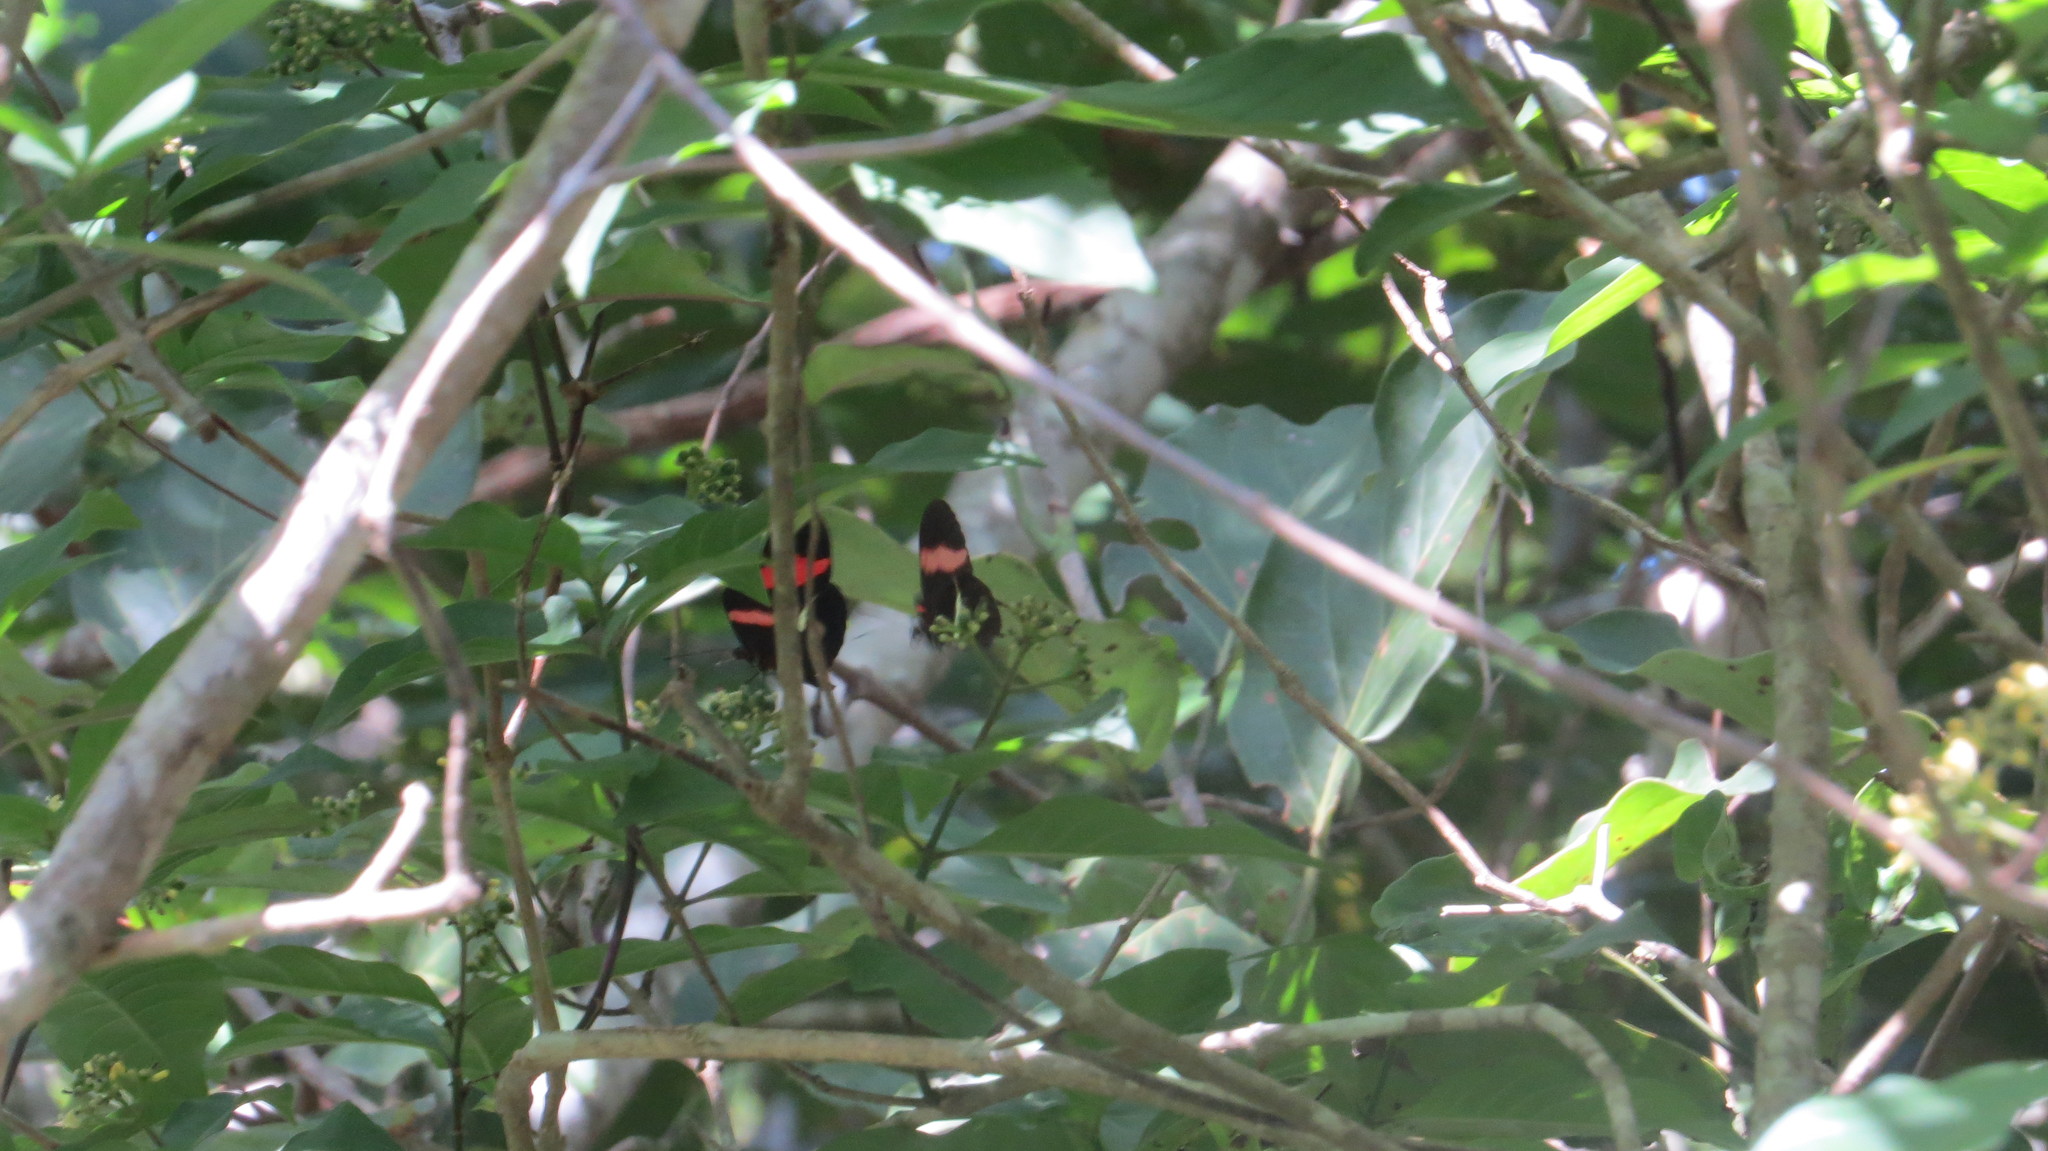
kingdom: Animalia
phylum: Arthropoda
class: Insecta
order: Lepidoptera
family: Nymphalidae
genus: Heliconius
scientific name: Heliconius erato
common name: Common patch longwing
